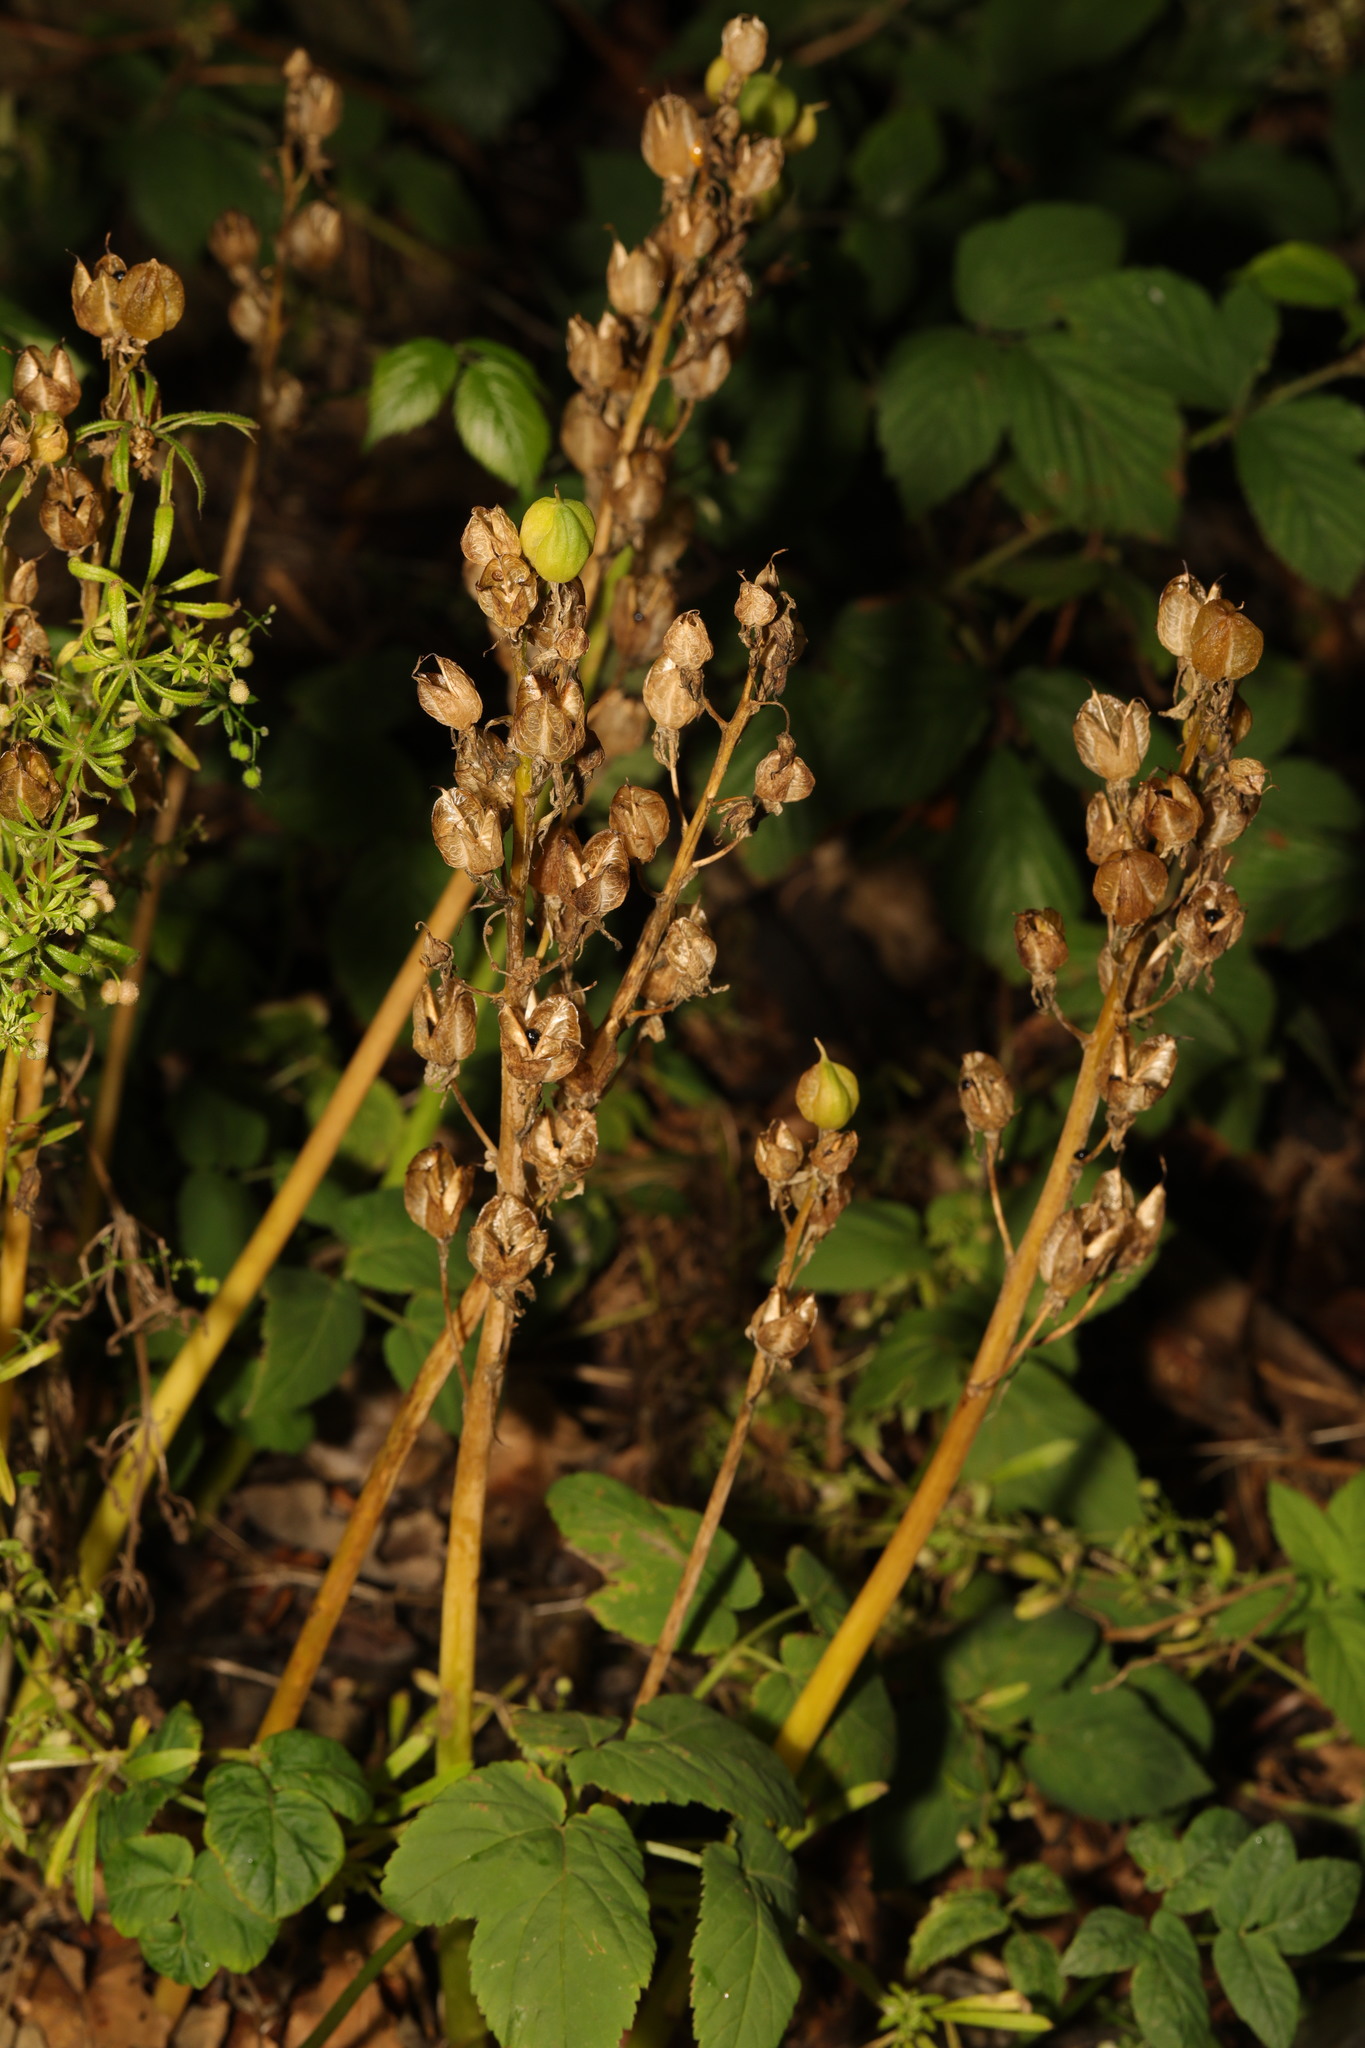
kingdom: Plantae
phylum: Tracheophyta
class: Liliopsida
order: Asparagales
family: Asparagaceae
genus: Hyacinthoides
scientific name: Hyacinthoides massartiana
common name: Hyacinthoides
